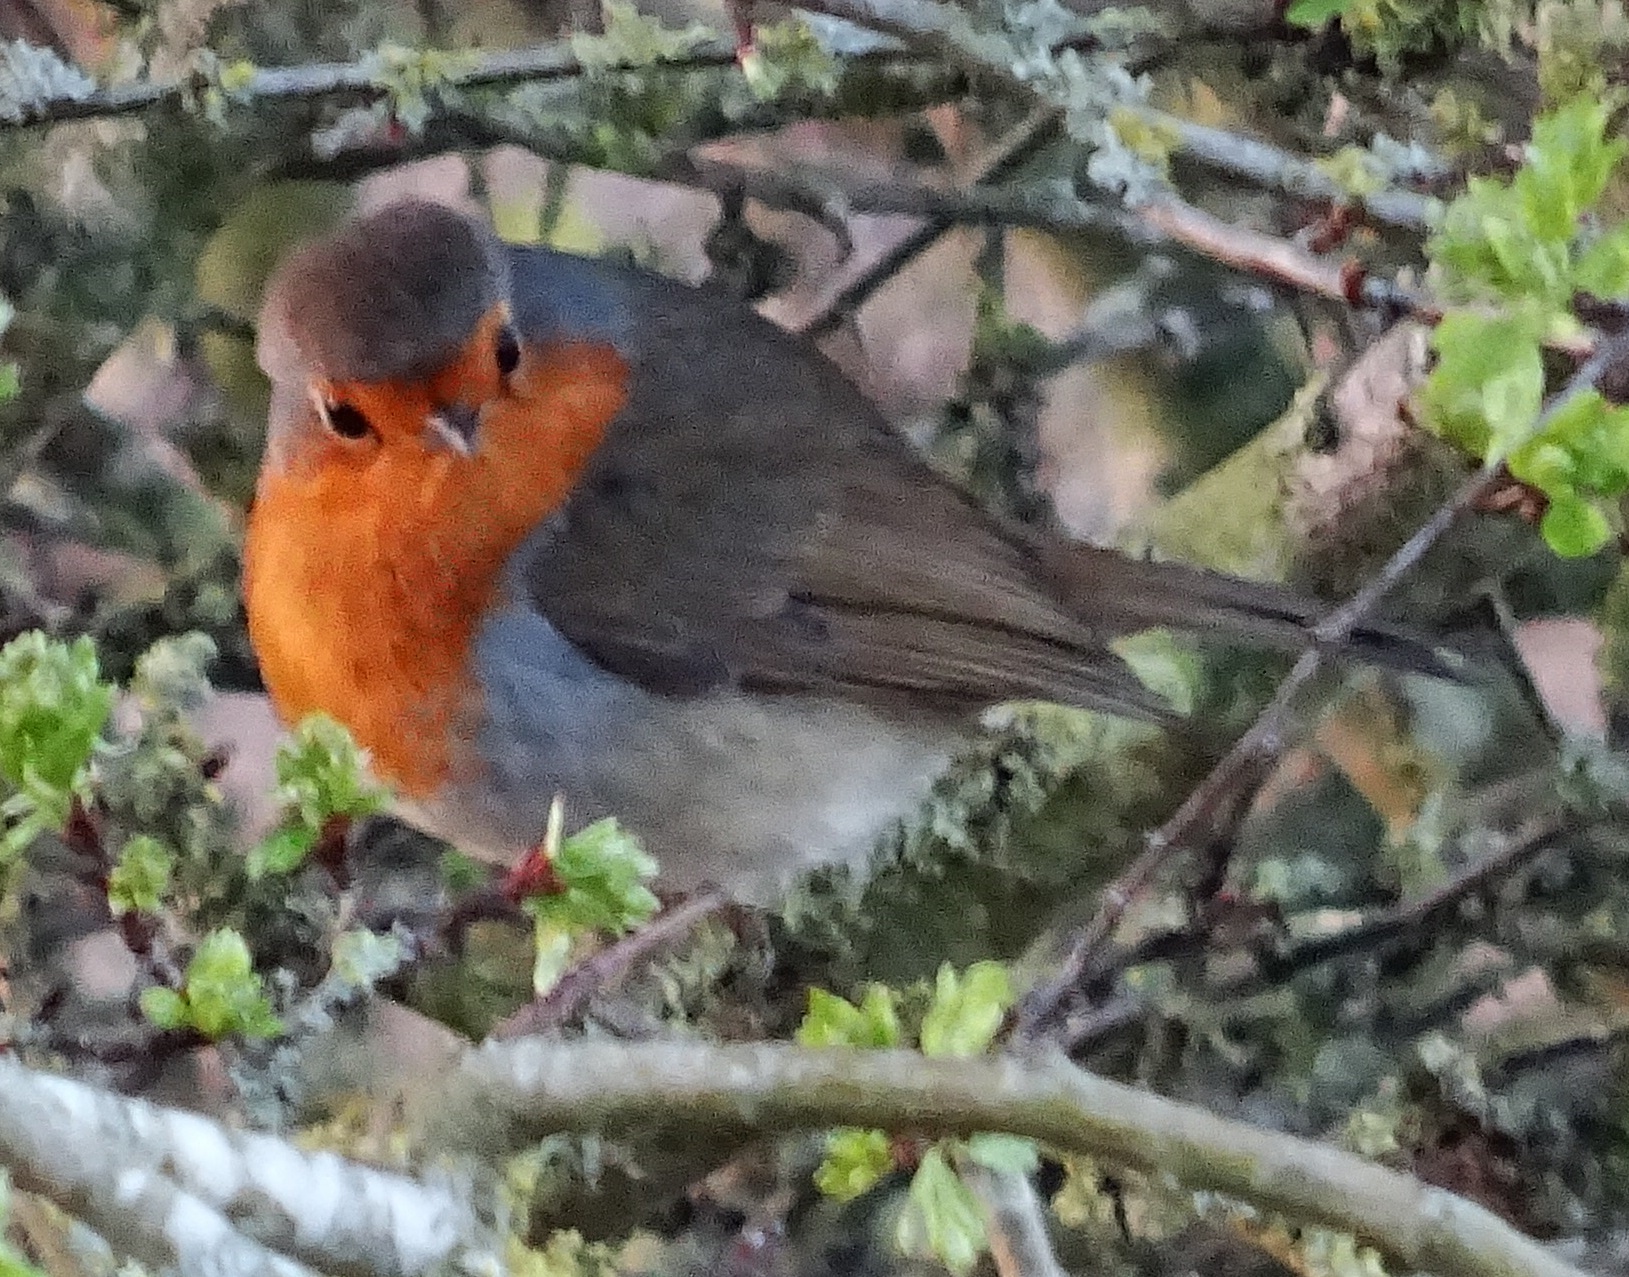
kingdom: Animalia
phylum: Chordata
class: Aves
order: Passeriformes
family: Muscicapidae
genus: Erithacus
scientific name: Erithacus rubecula
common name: European robin
